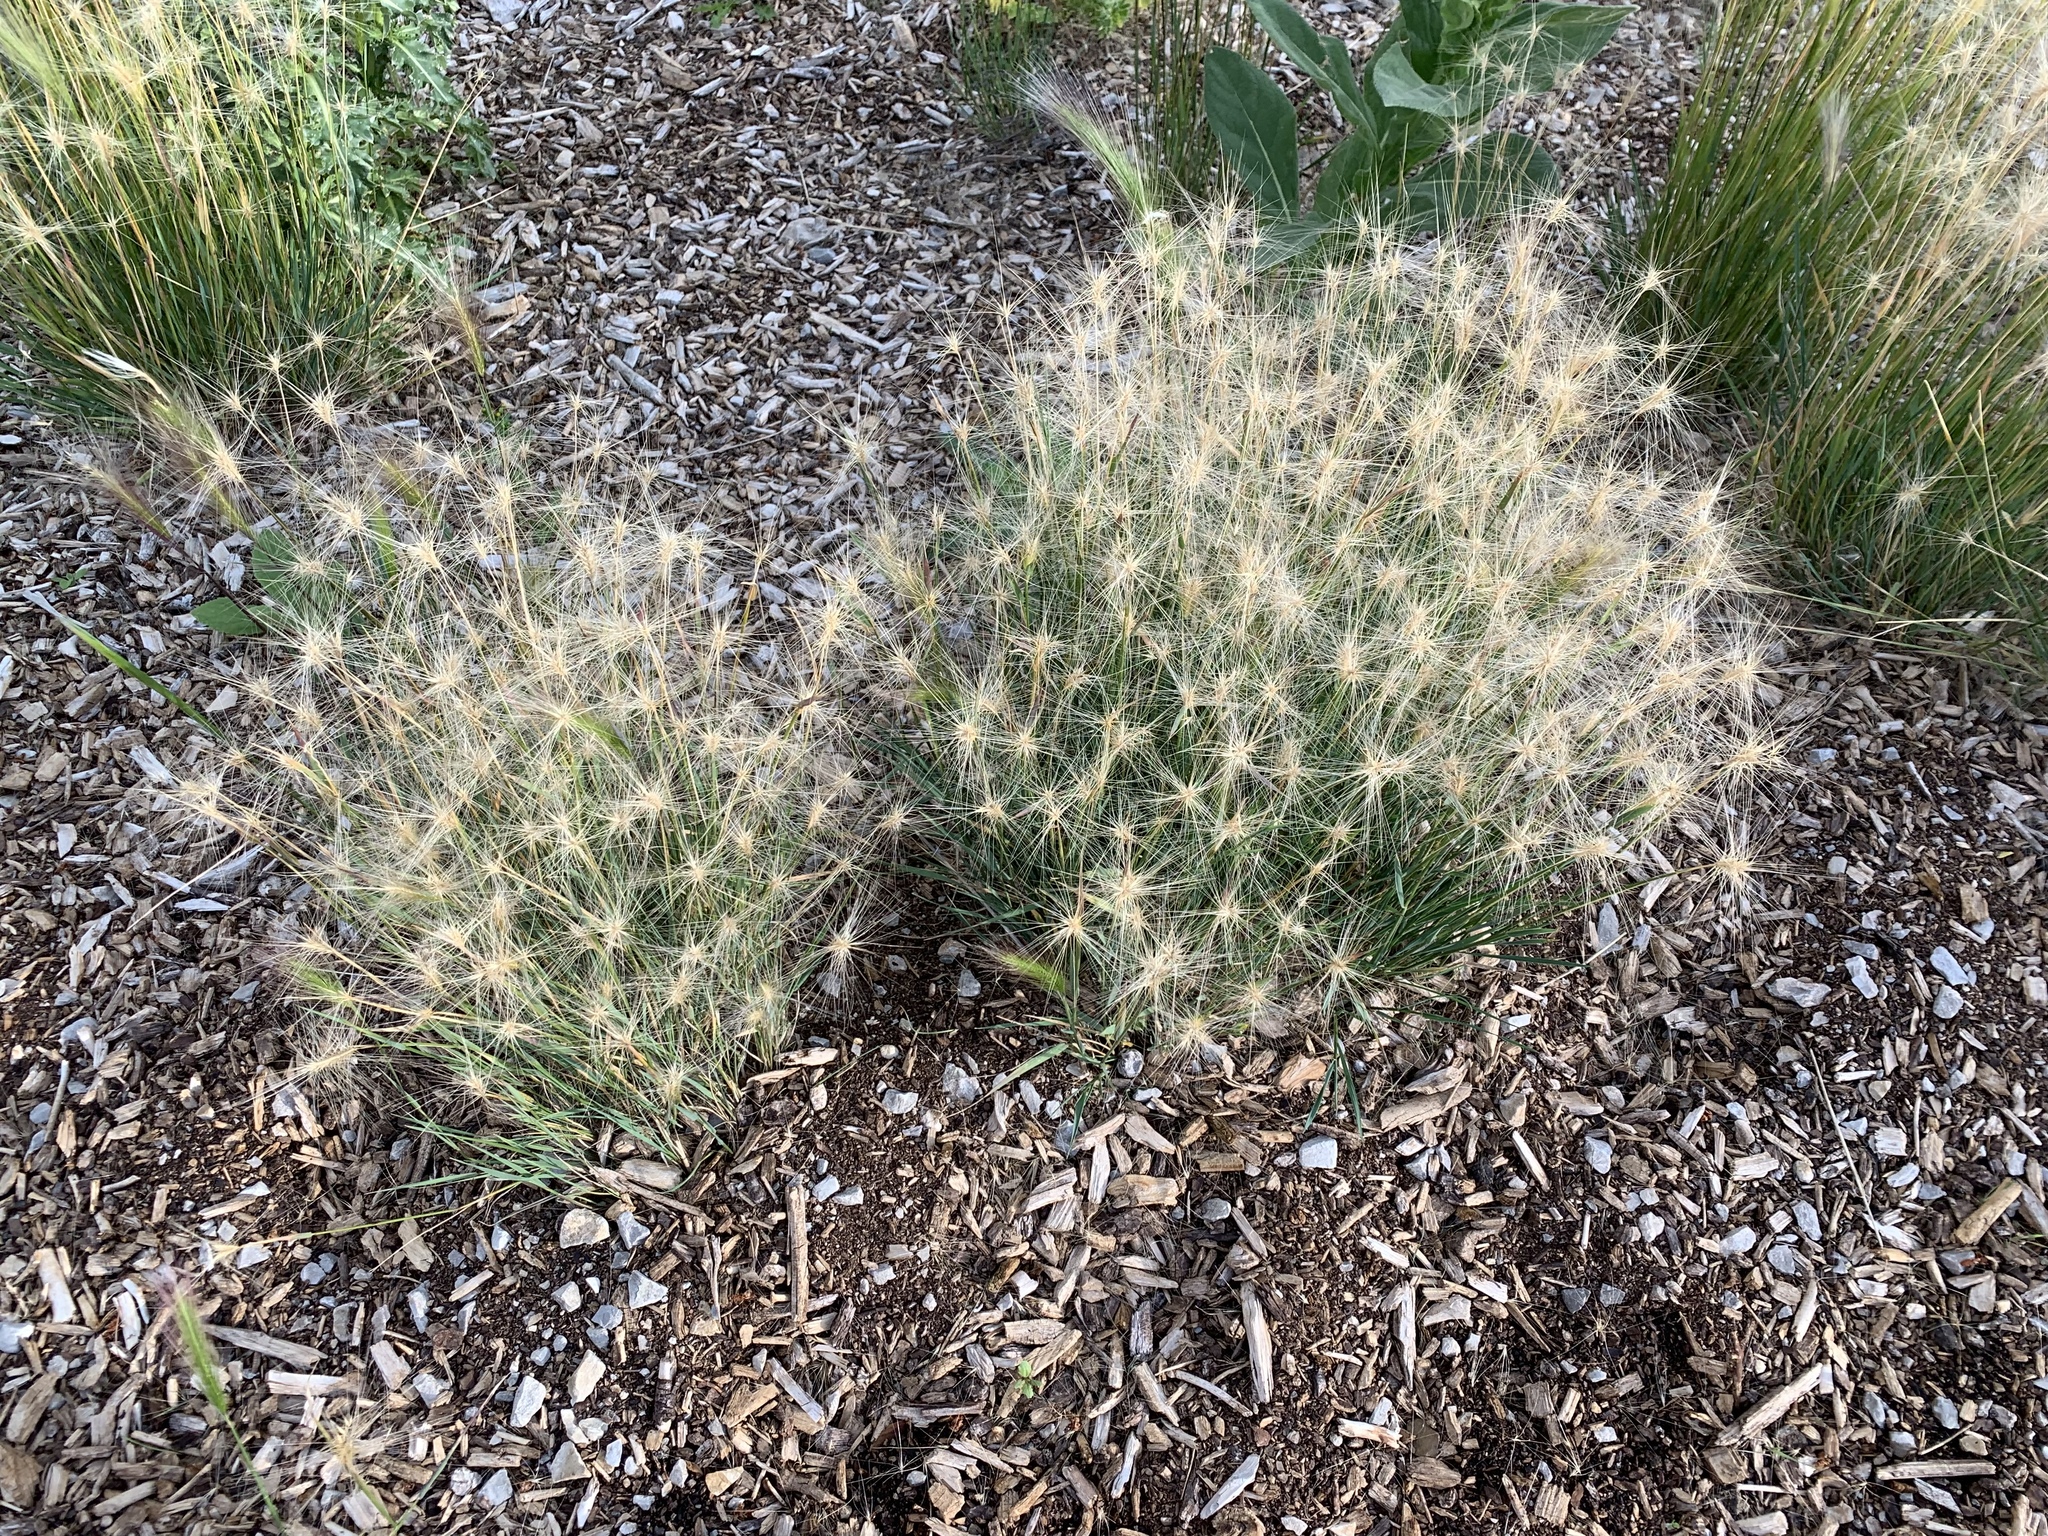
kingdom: Plantae
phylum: Tracheophyta
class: Liliopsida
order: Poales
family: Poaceae
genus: Hordeum
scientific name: Hordeum jubatum
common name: Foxtail barley
